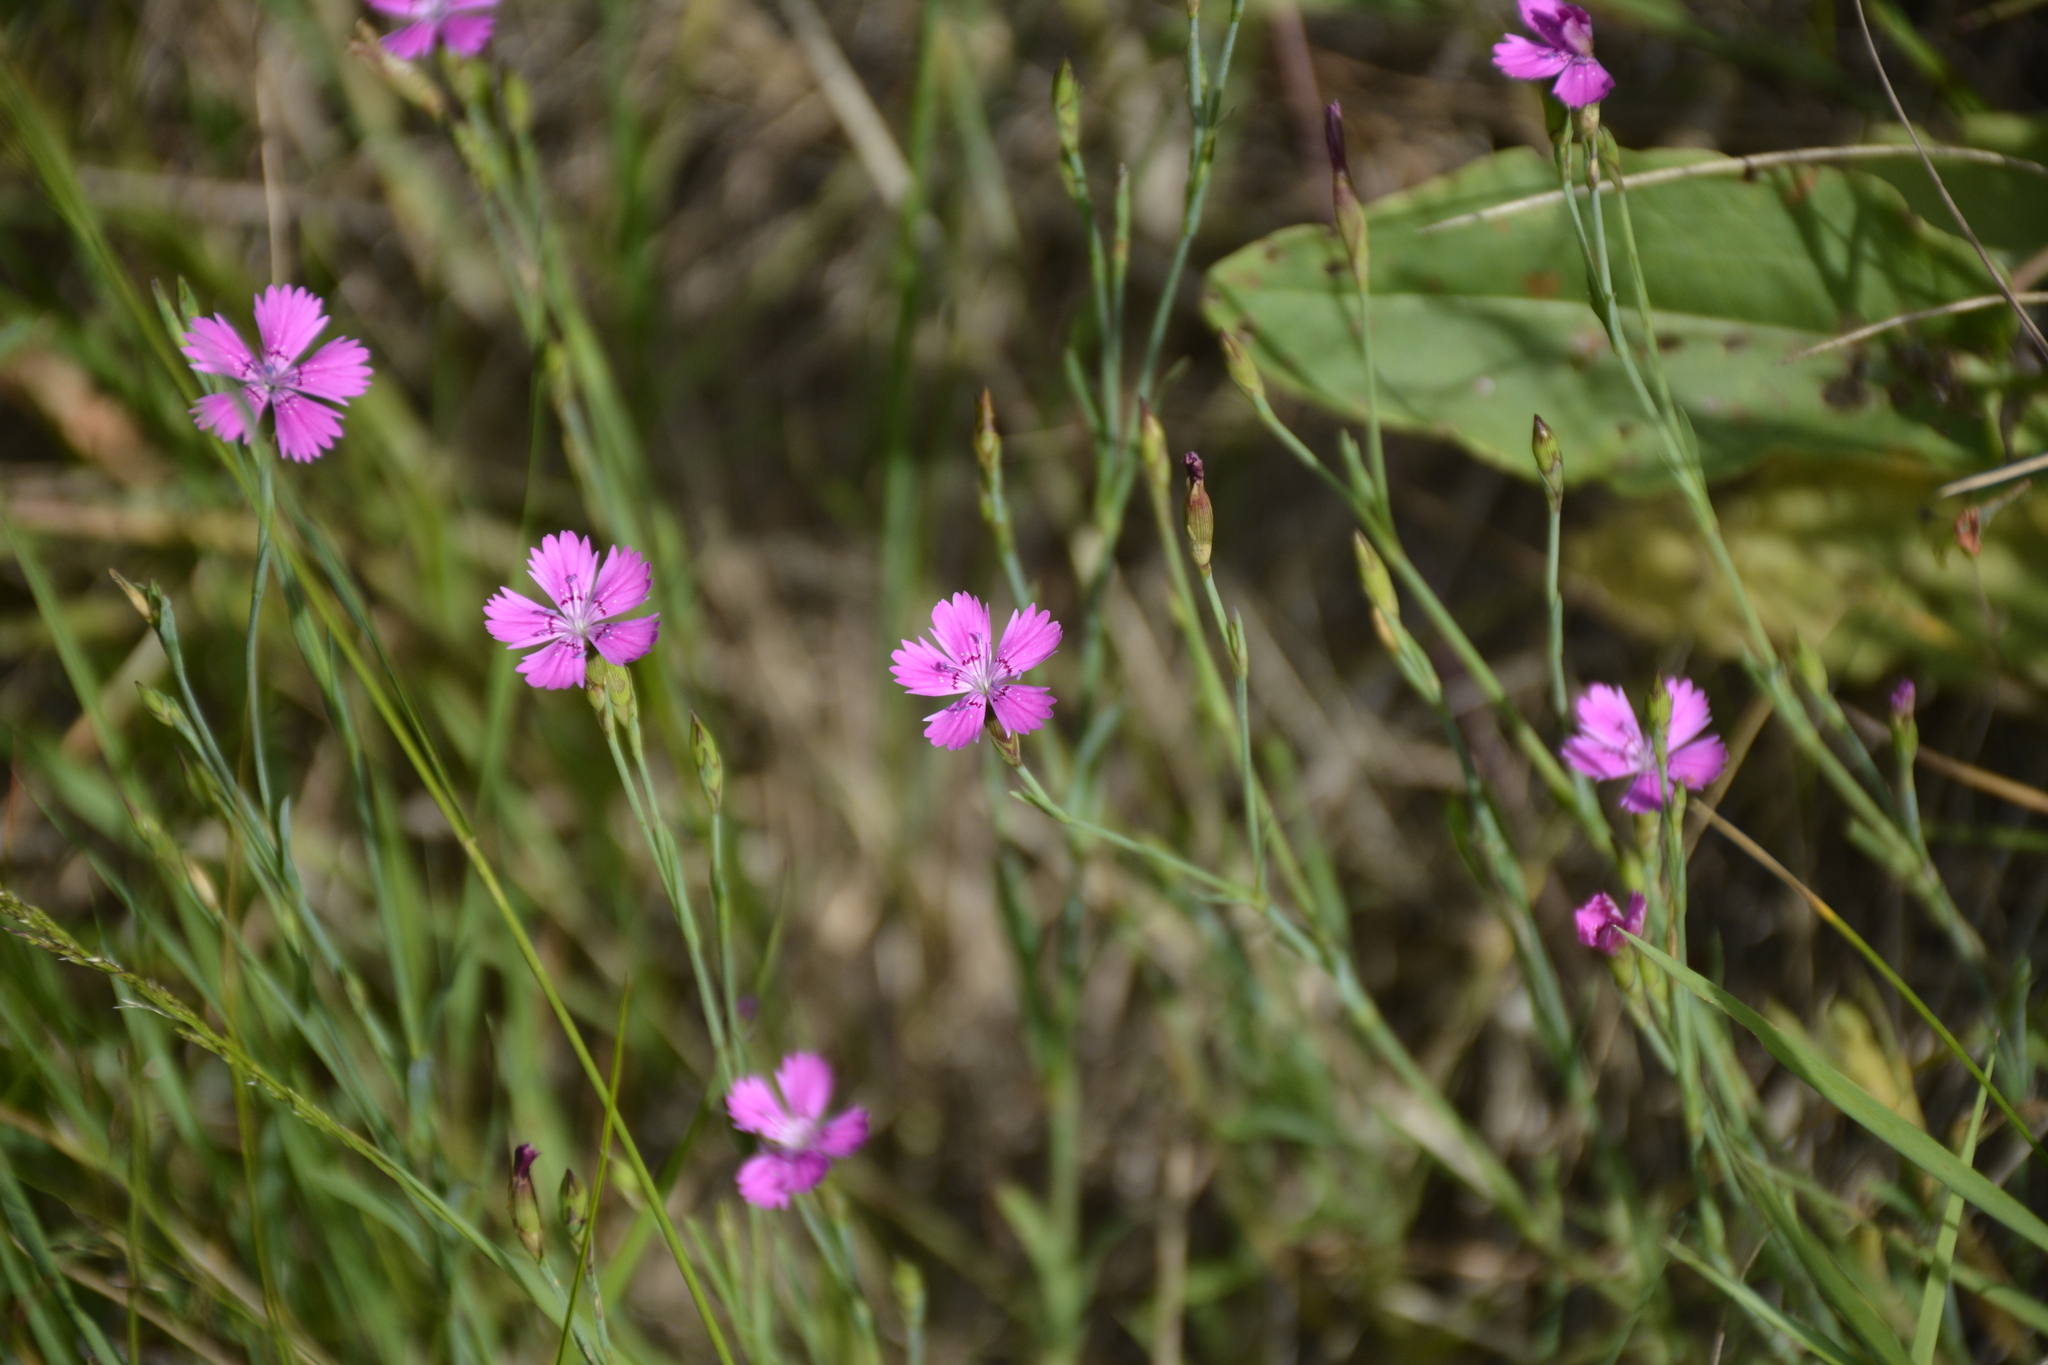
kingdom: Plantae
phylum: Tracheophyta
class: Magnoliopsida
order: Caryophyllales
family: Caryophyllaceae
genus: Dianthus
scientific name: Dianthus deltoides
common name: Maiden pink
